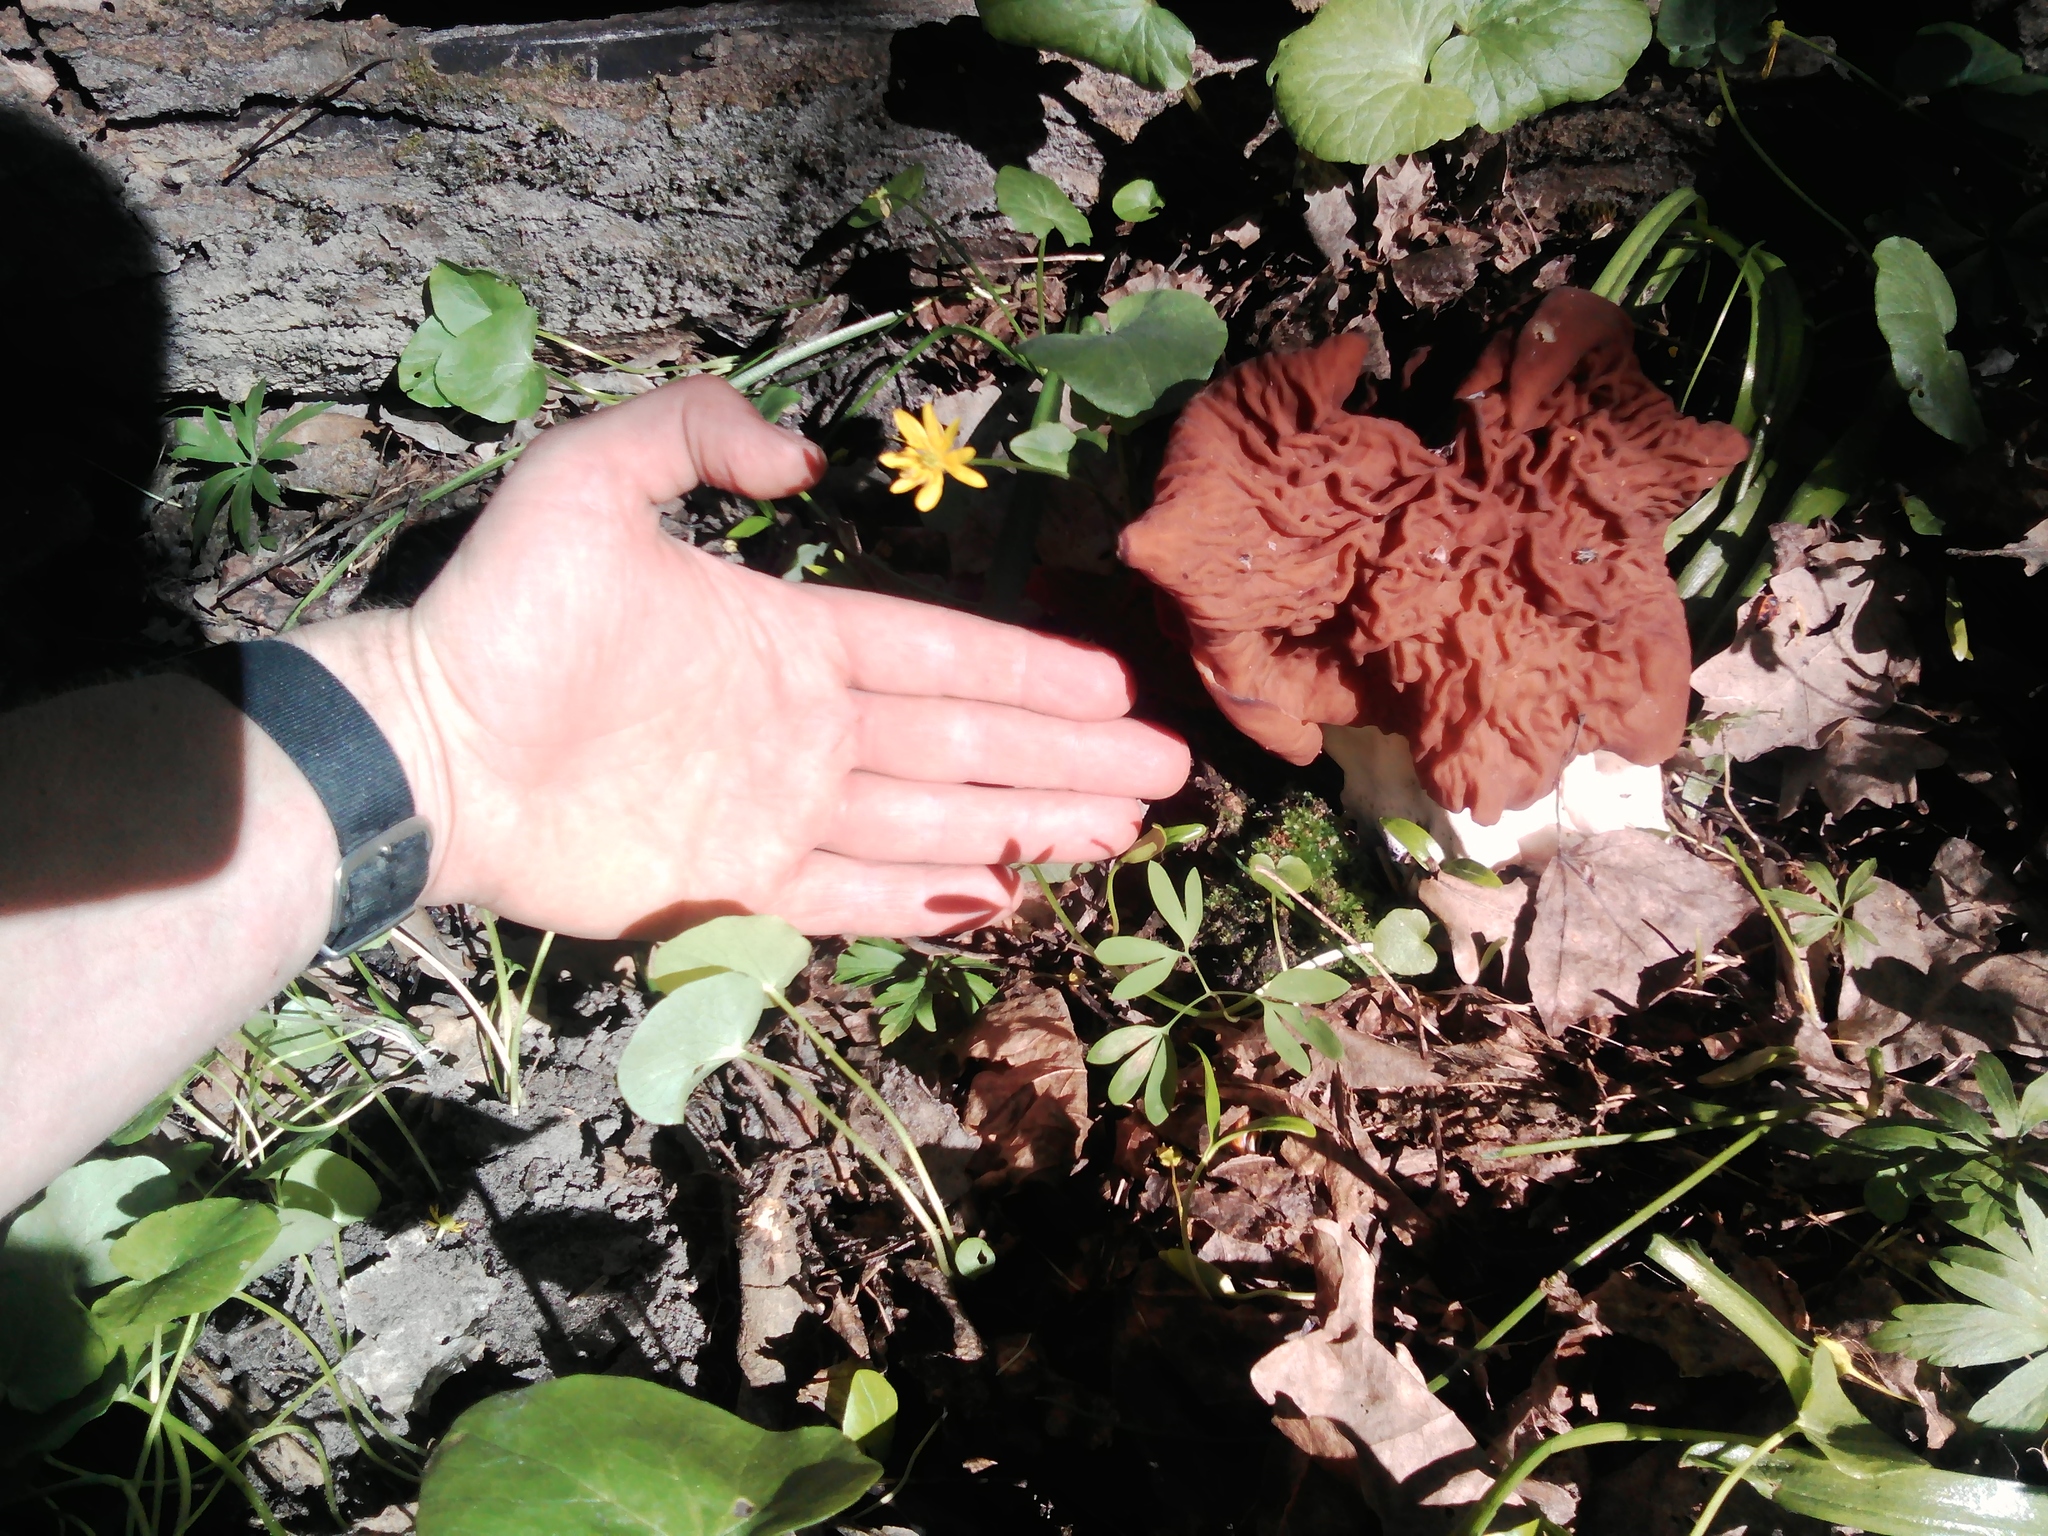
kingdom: Fungi
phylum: Ascomycota
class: Pezizomycetes
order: Pezizales
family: Discinaceae
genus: Discina
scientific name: Discina fastigiata
